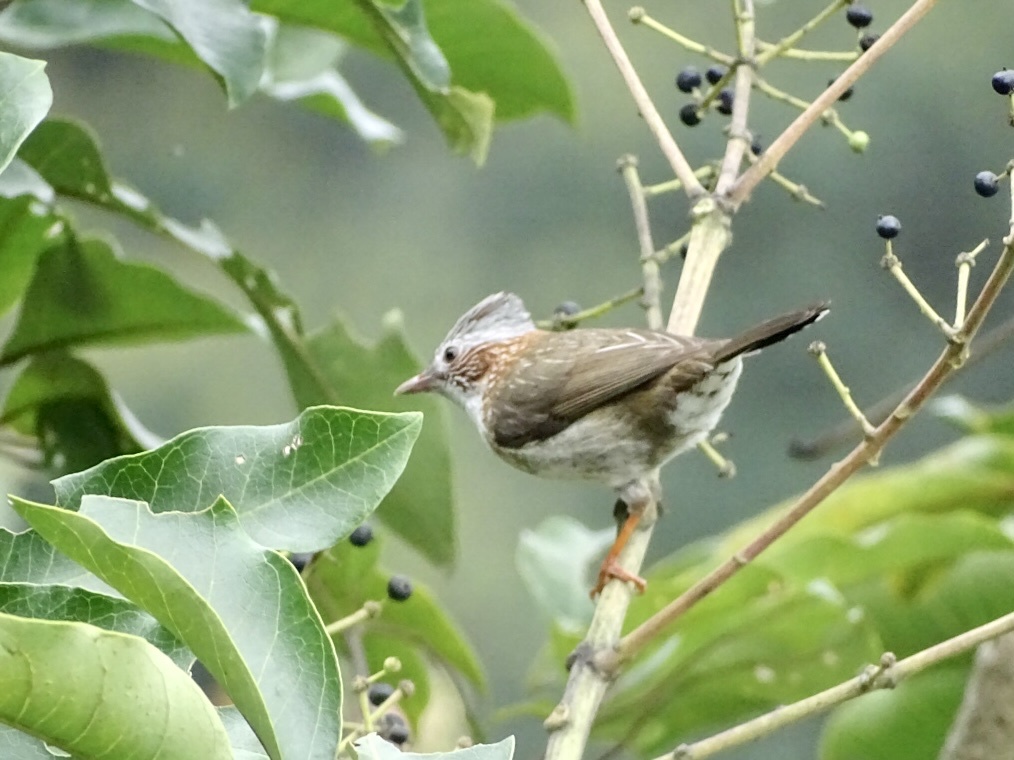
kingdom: Animalia
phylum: Chordata
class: Aves
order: Passeriformes
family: Zosteropidae
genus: Yuhina
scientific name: Yuhina torqueola
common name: Indochinese yuhina
